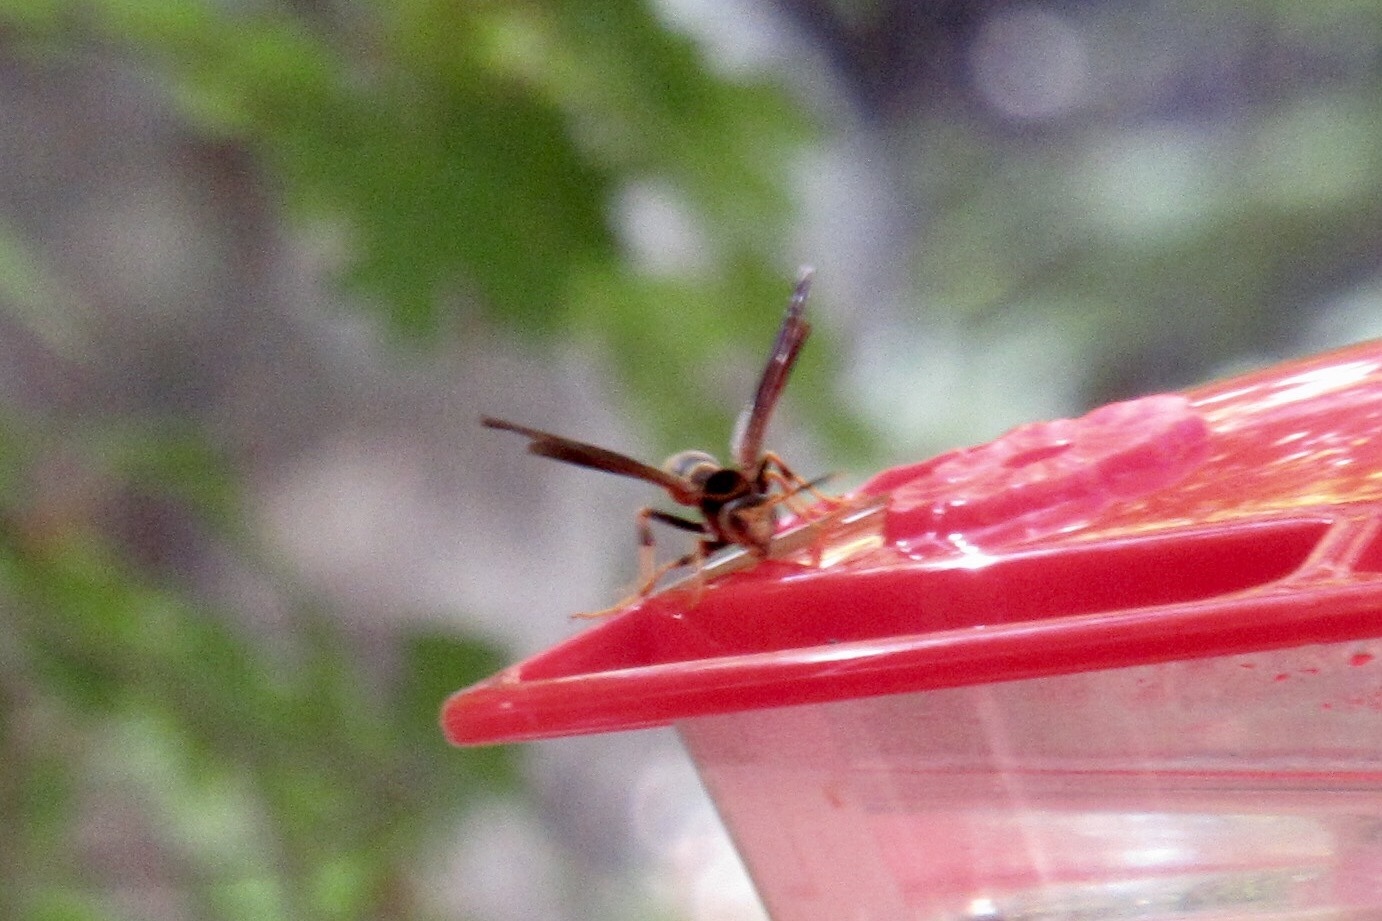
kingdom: Animalia
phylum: Arthropoda
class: Insecta
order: Hymenoptera
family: Eumenidae
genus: Polistes
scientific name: Polistes comanchus
